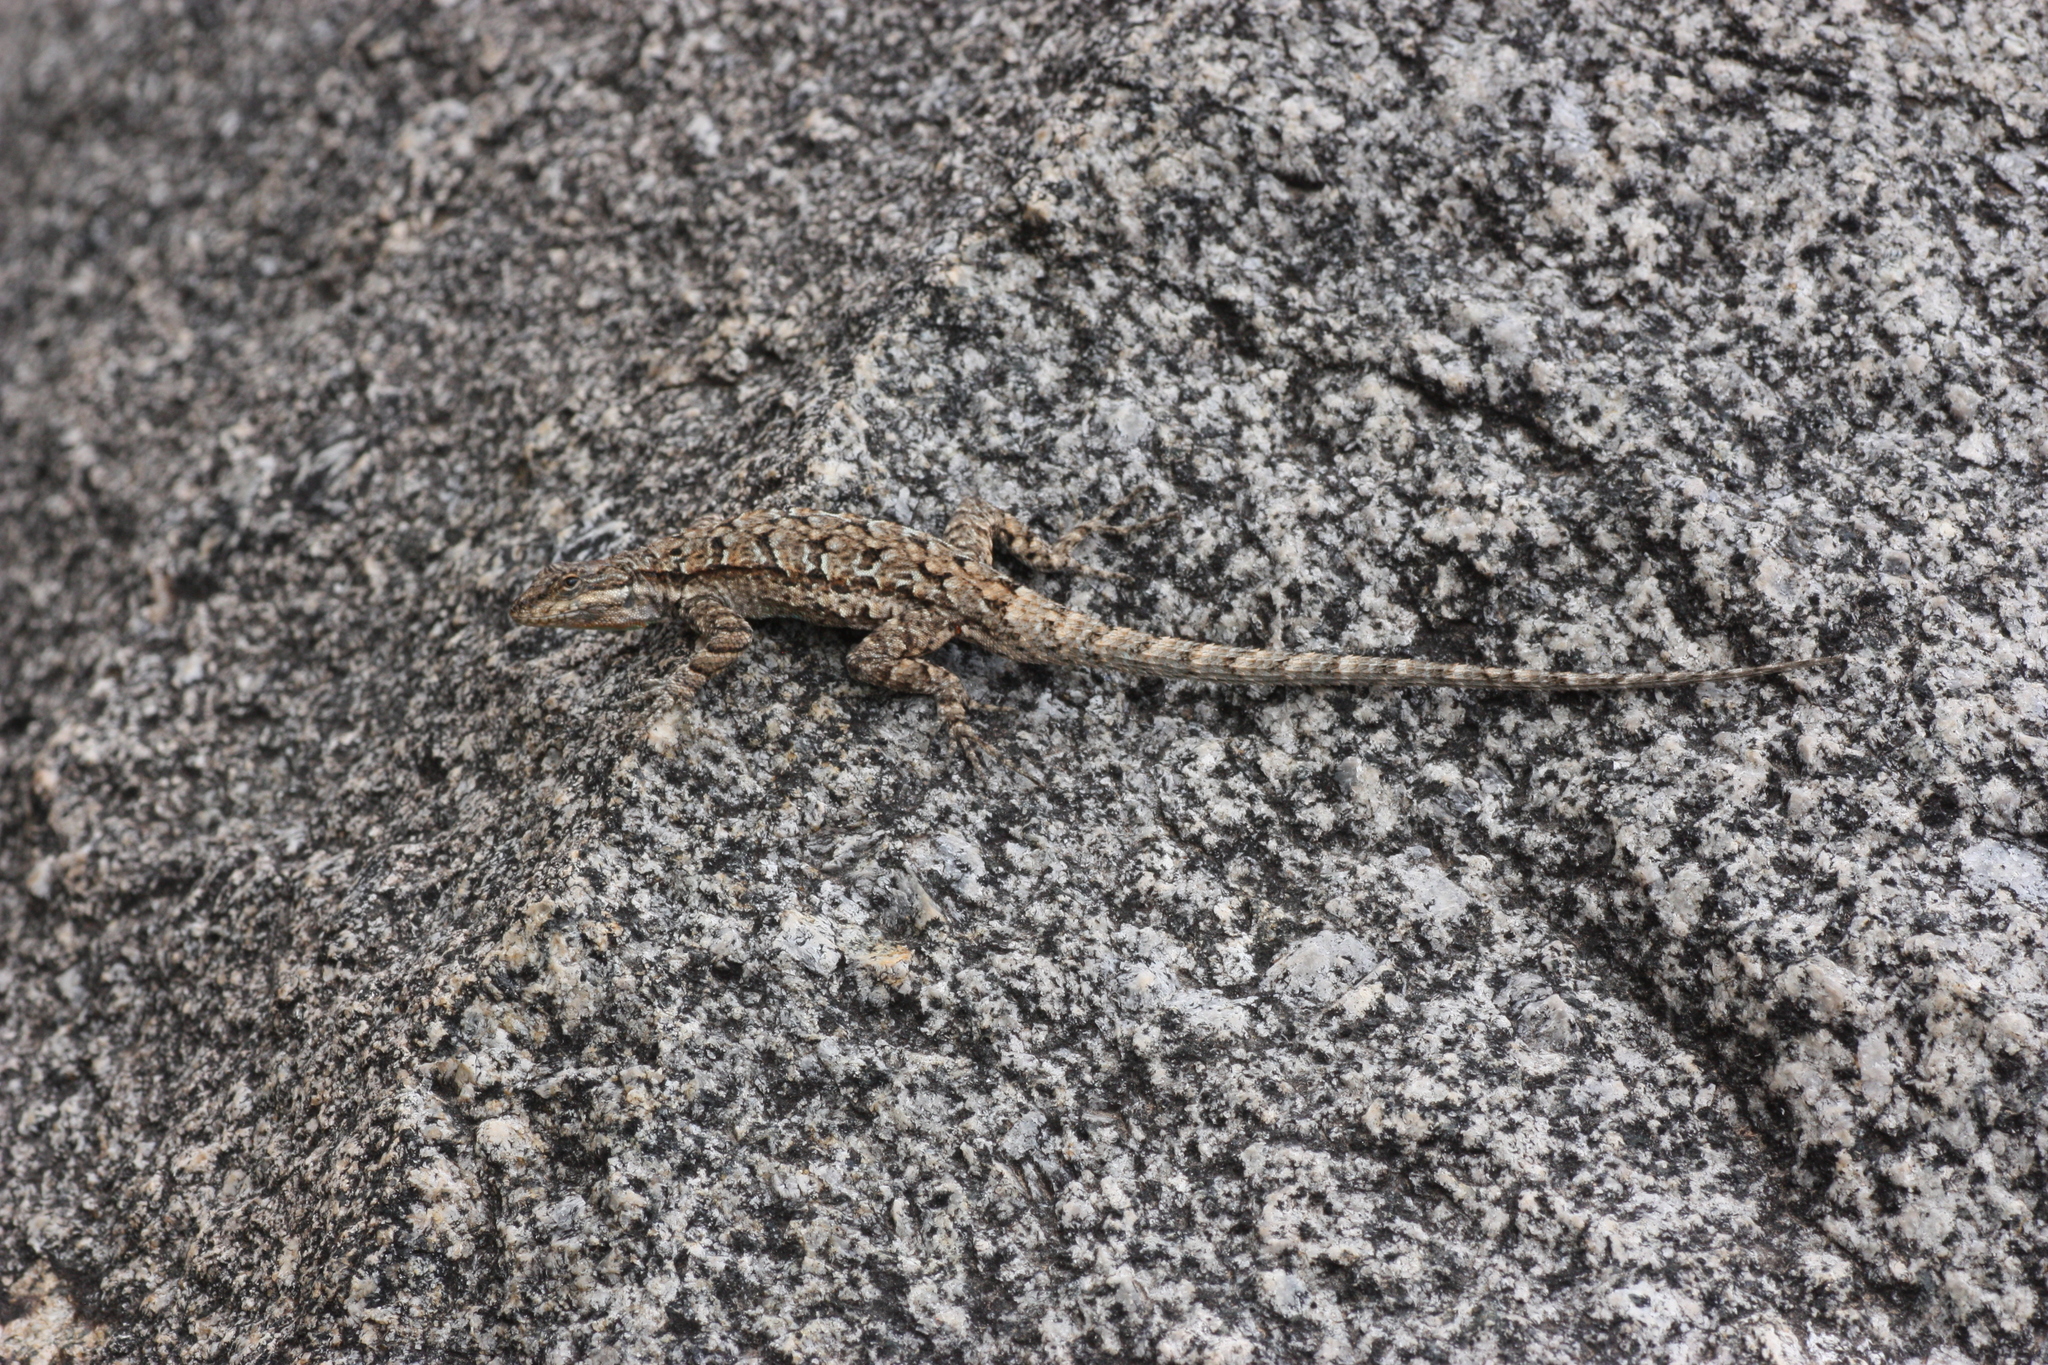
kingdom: Animalia
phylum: Chordata
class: Squamata
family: Phrynosomatidae
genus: Urosaurus
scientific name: Urosaurus ornatus
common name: Ornate tree lizard
